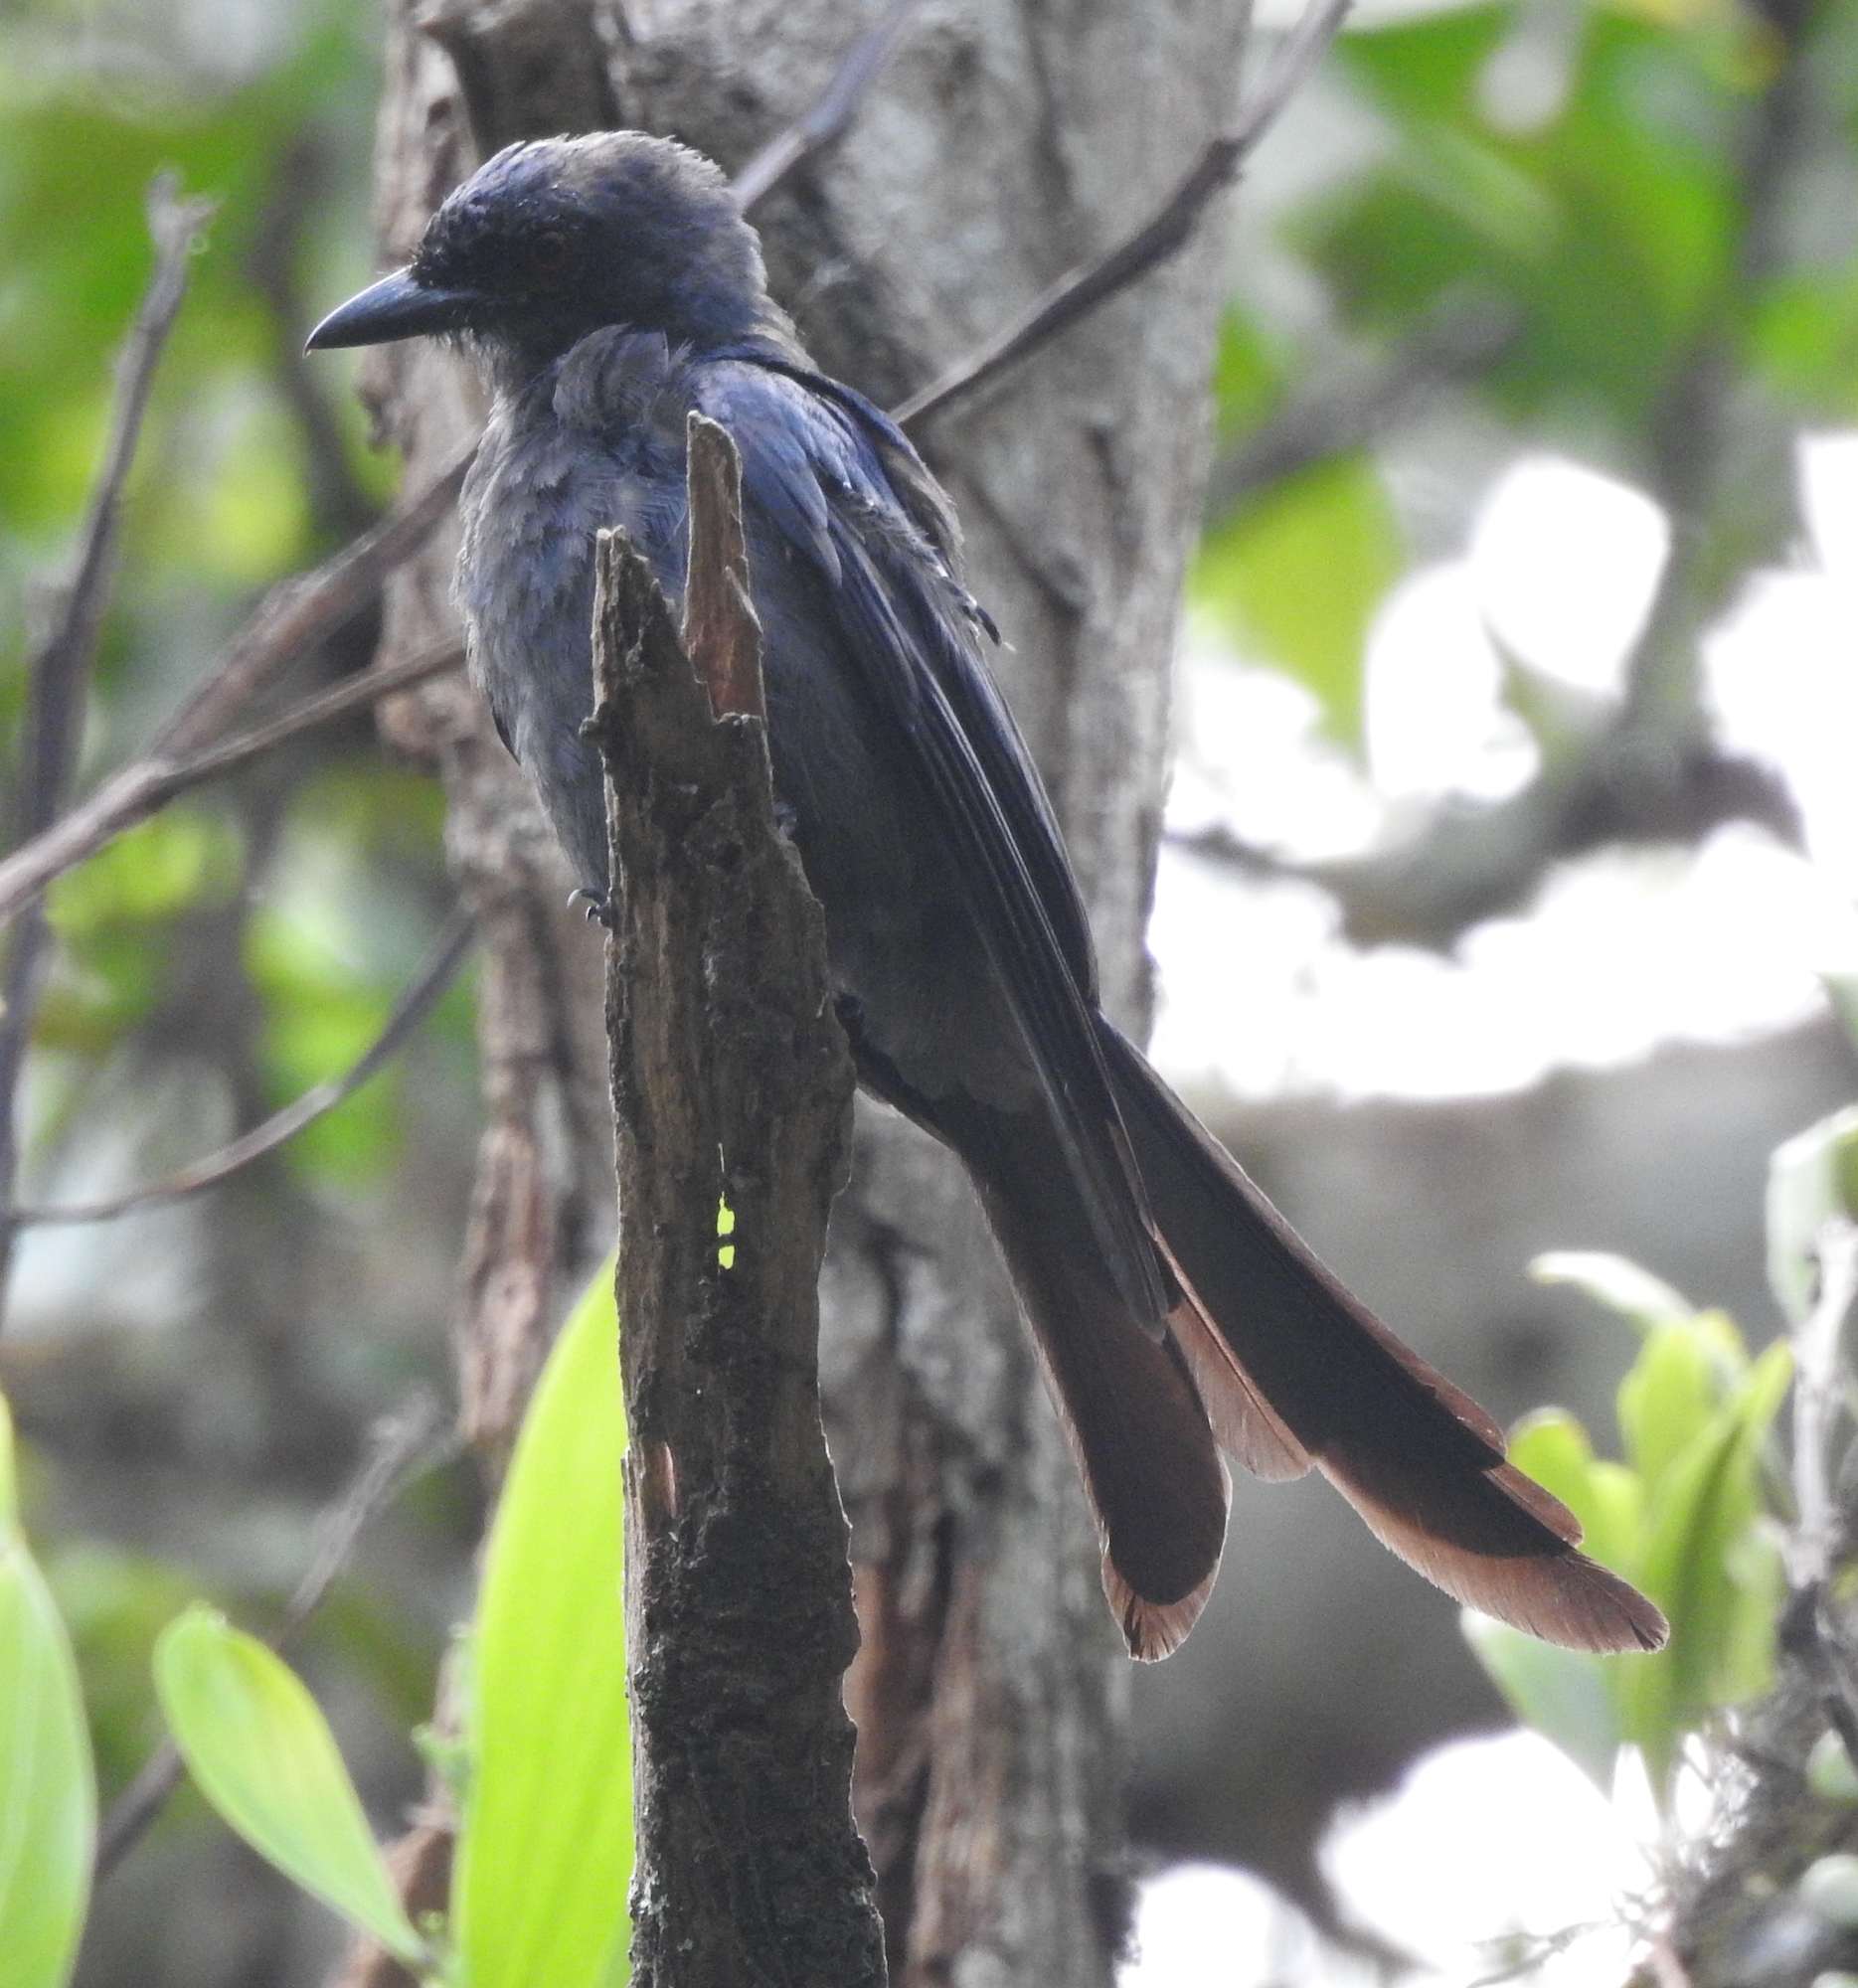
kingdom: Animalia
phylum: Chordata
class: Aves
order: Passeriformes
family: Dicruridae
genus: Dicrurus
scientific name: Dicrurus leucophaeus
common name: Ashy drongo
